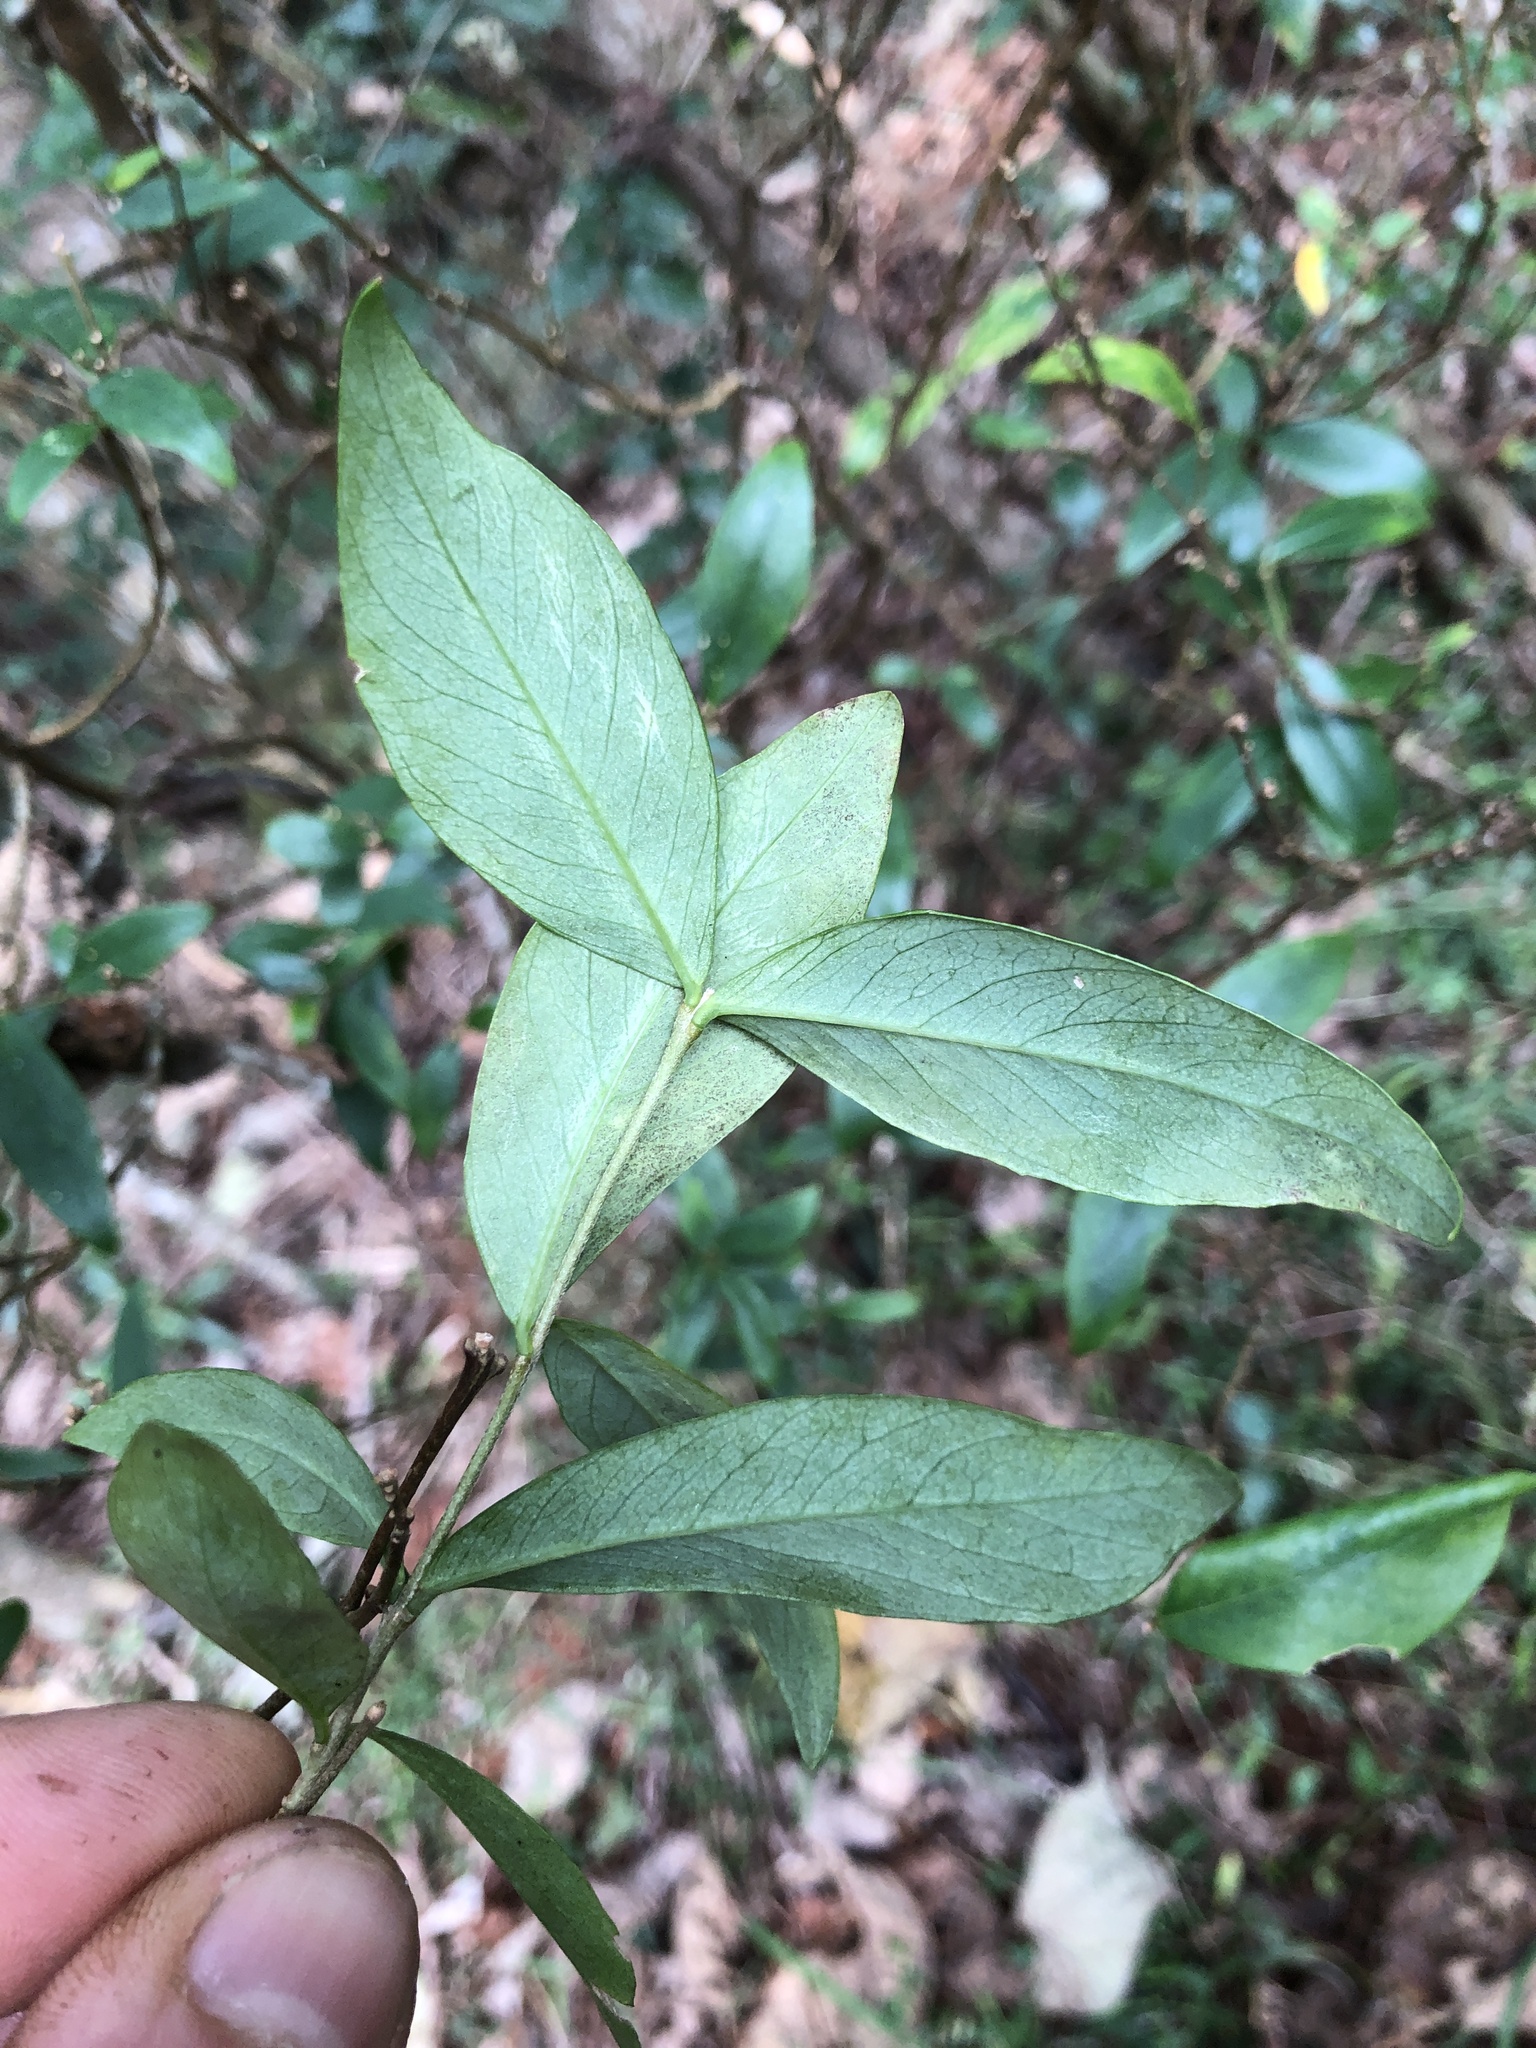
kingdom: Plantae
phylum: Tracheophyta
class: Magnoliopsida
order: Malvales
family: Thymelaeaceae
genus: Wikstroemia
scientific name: Wikstroemia indica
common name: Tiebush
